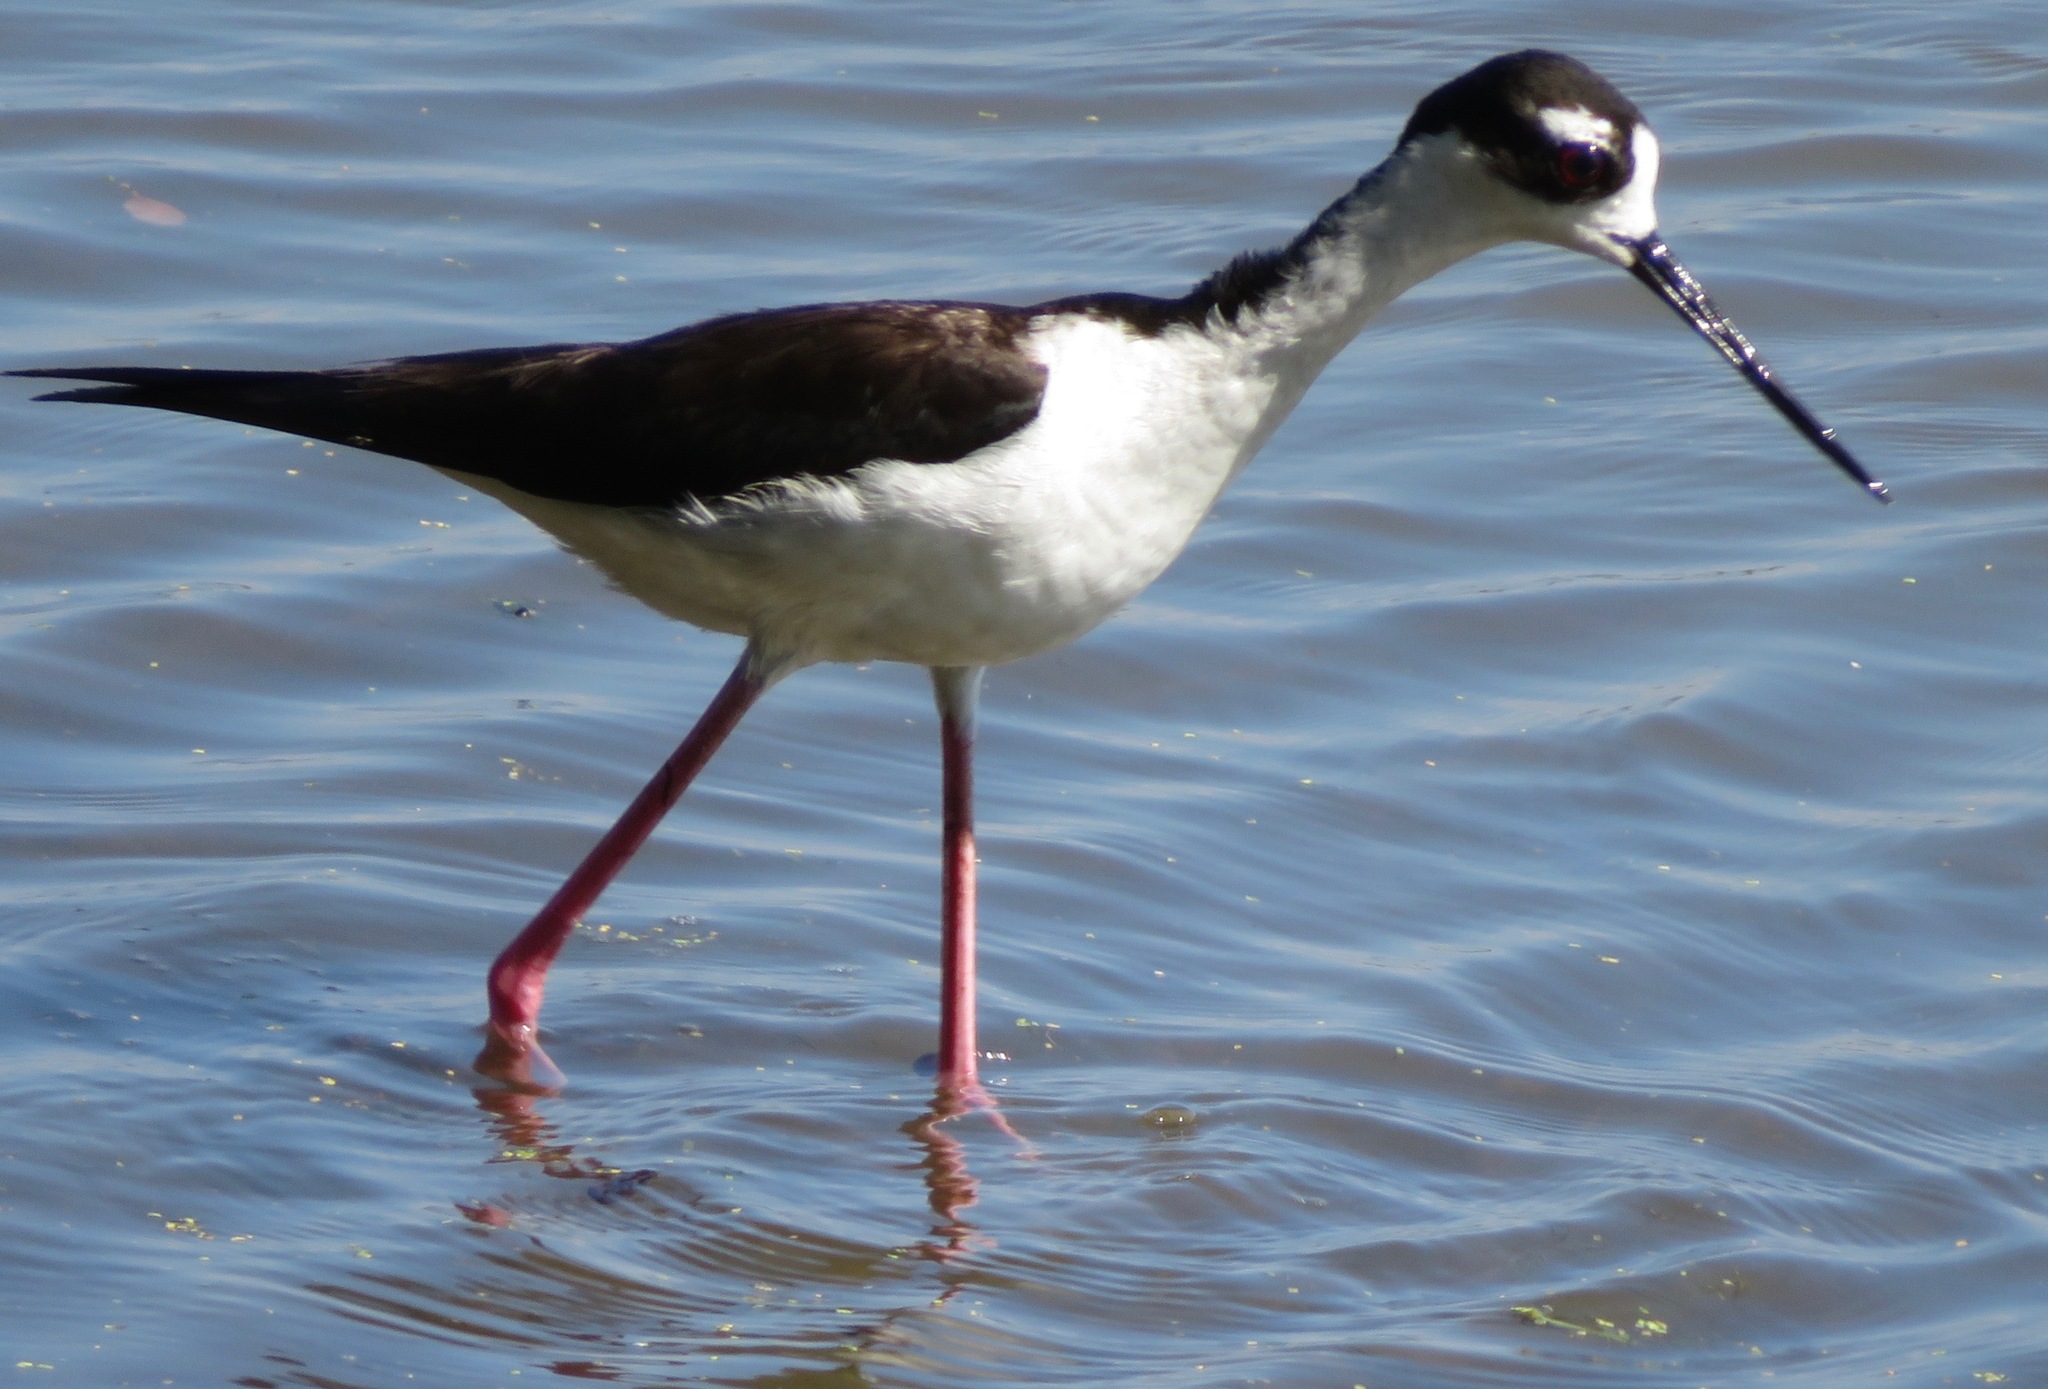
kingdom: Animalia
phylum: Chordata
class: Aves
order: Charadriiformes
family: Recurvirostridae
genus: Himantopus
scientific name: Himantopus mexicanus
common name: Black-necked stilt
